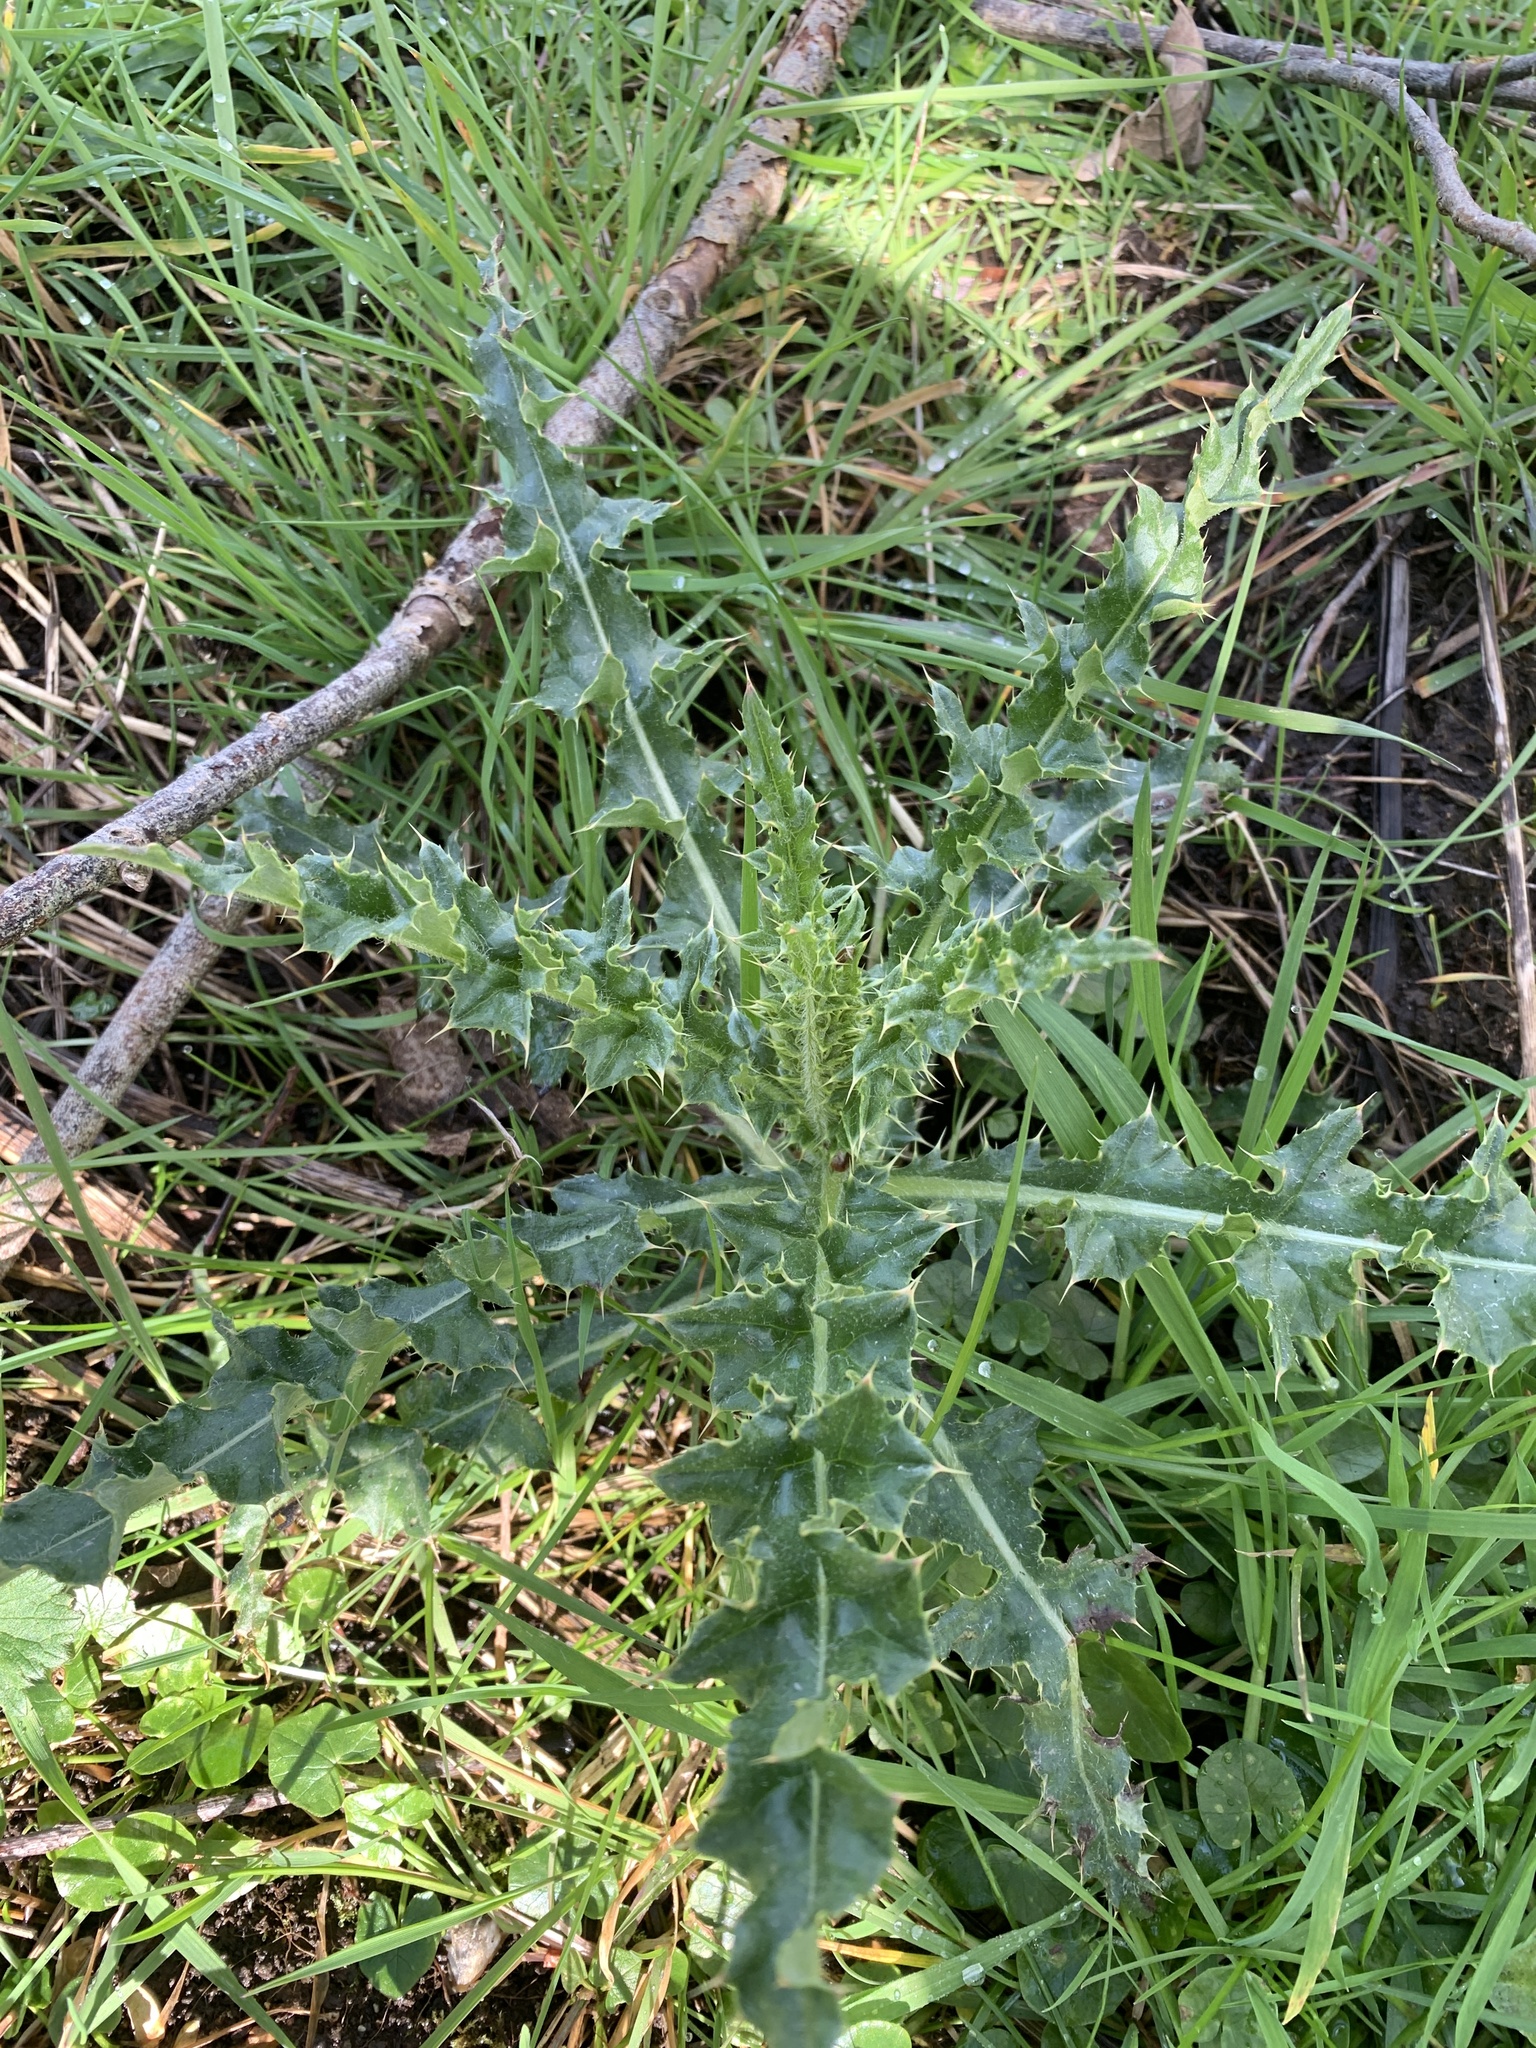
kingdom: Plantae
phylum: Tracheophyta
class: Magnoliopsida
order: Asterales
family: Asteraceae
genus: Cirsium
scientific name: Cirsium arvense
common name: Creeping thistle
